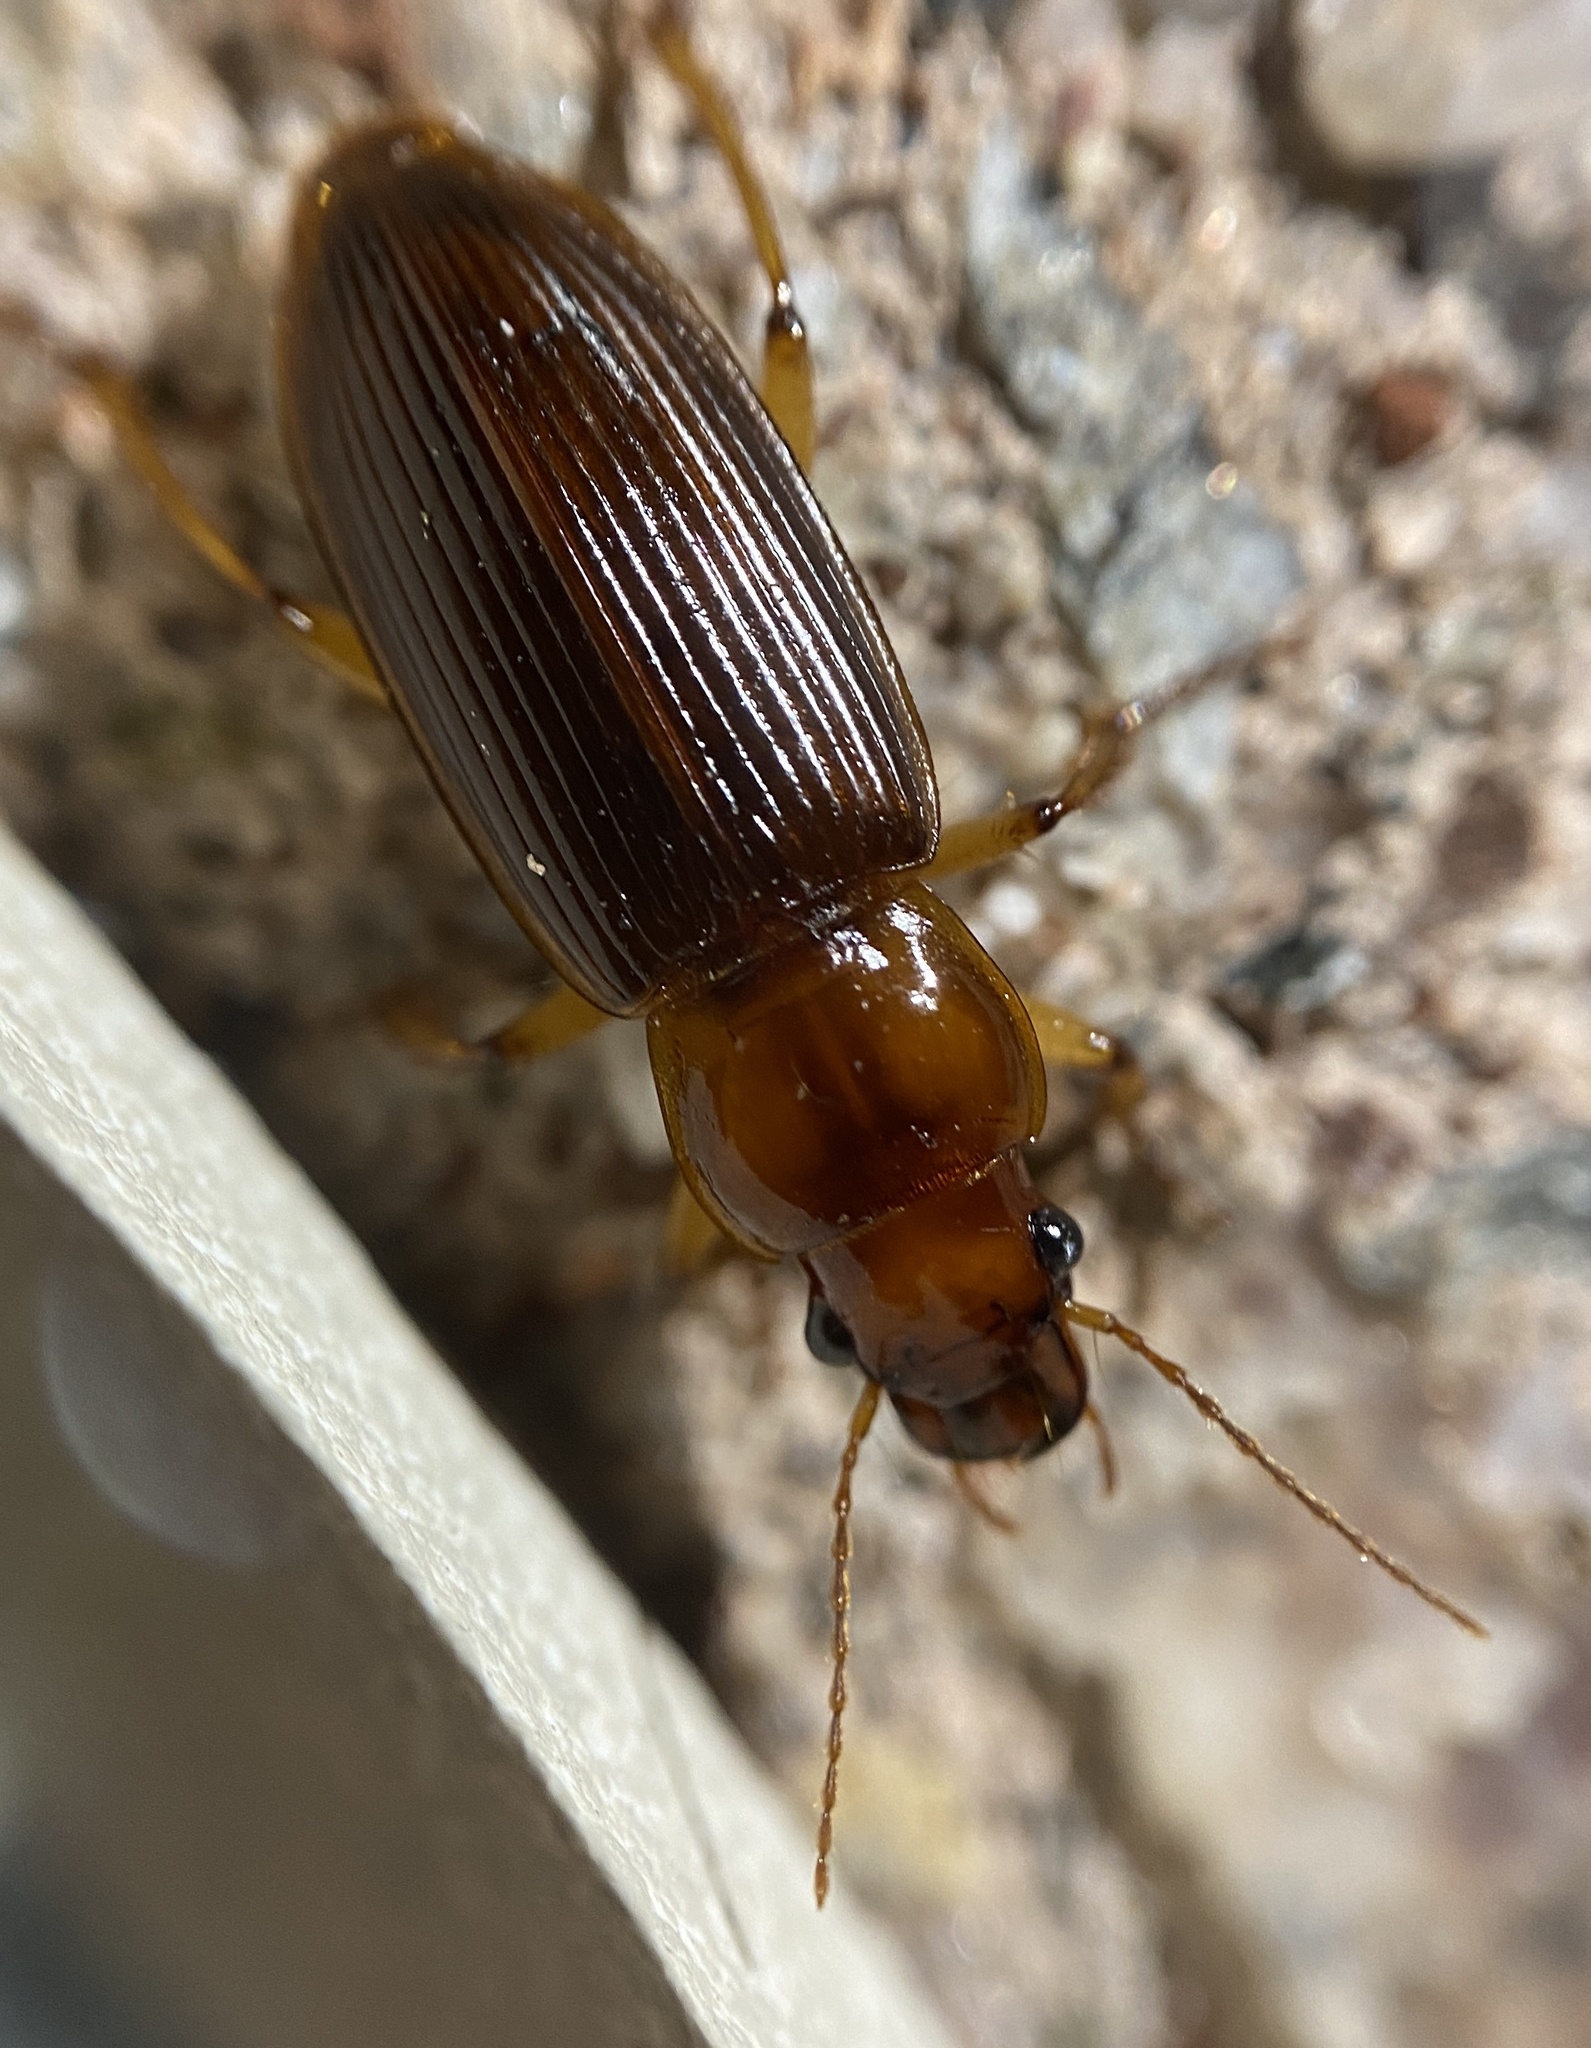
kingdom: Animalia
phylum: Arthropoda
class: Insecta
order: Coleoptera
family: Carabidae
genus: Harpalus
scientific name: Harpalus erraticus
